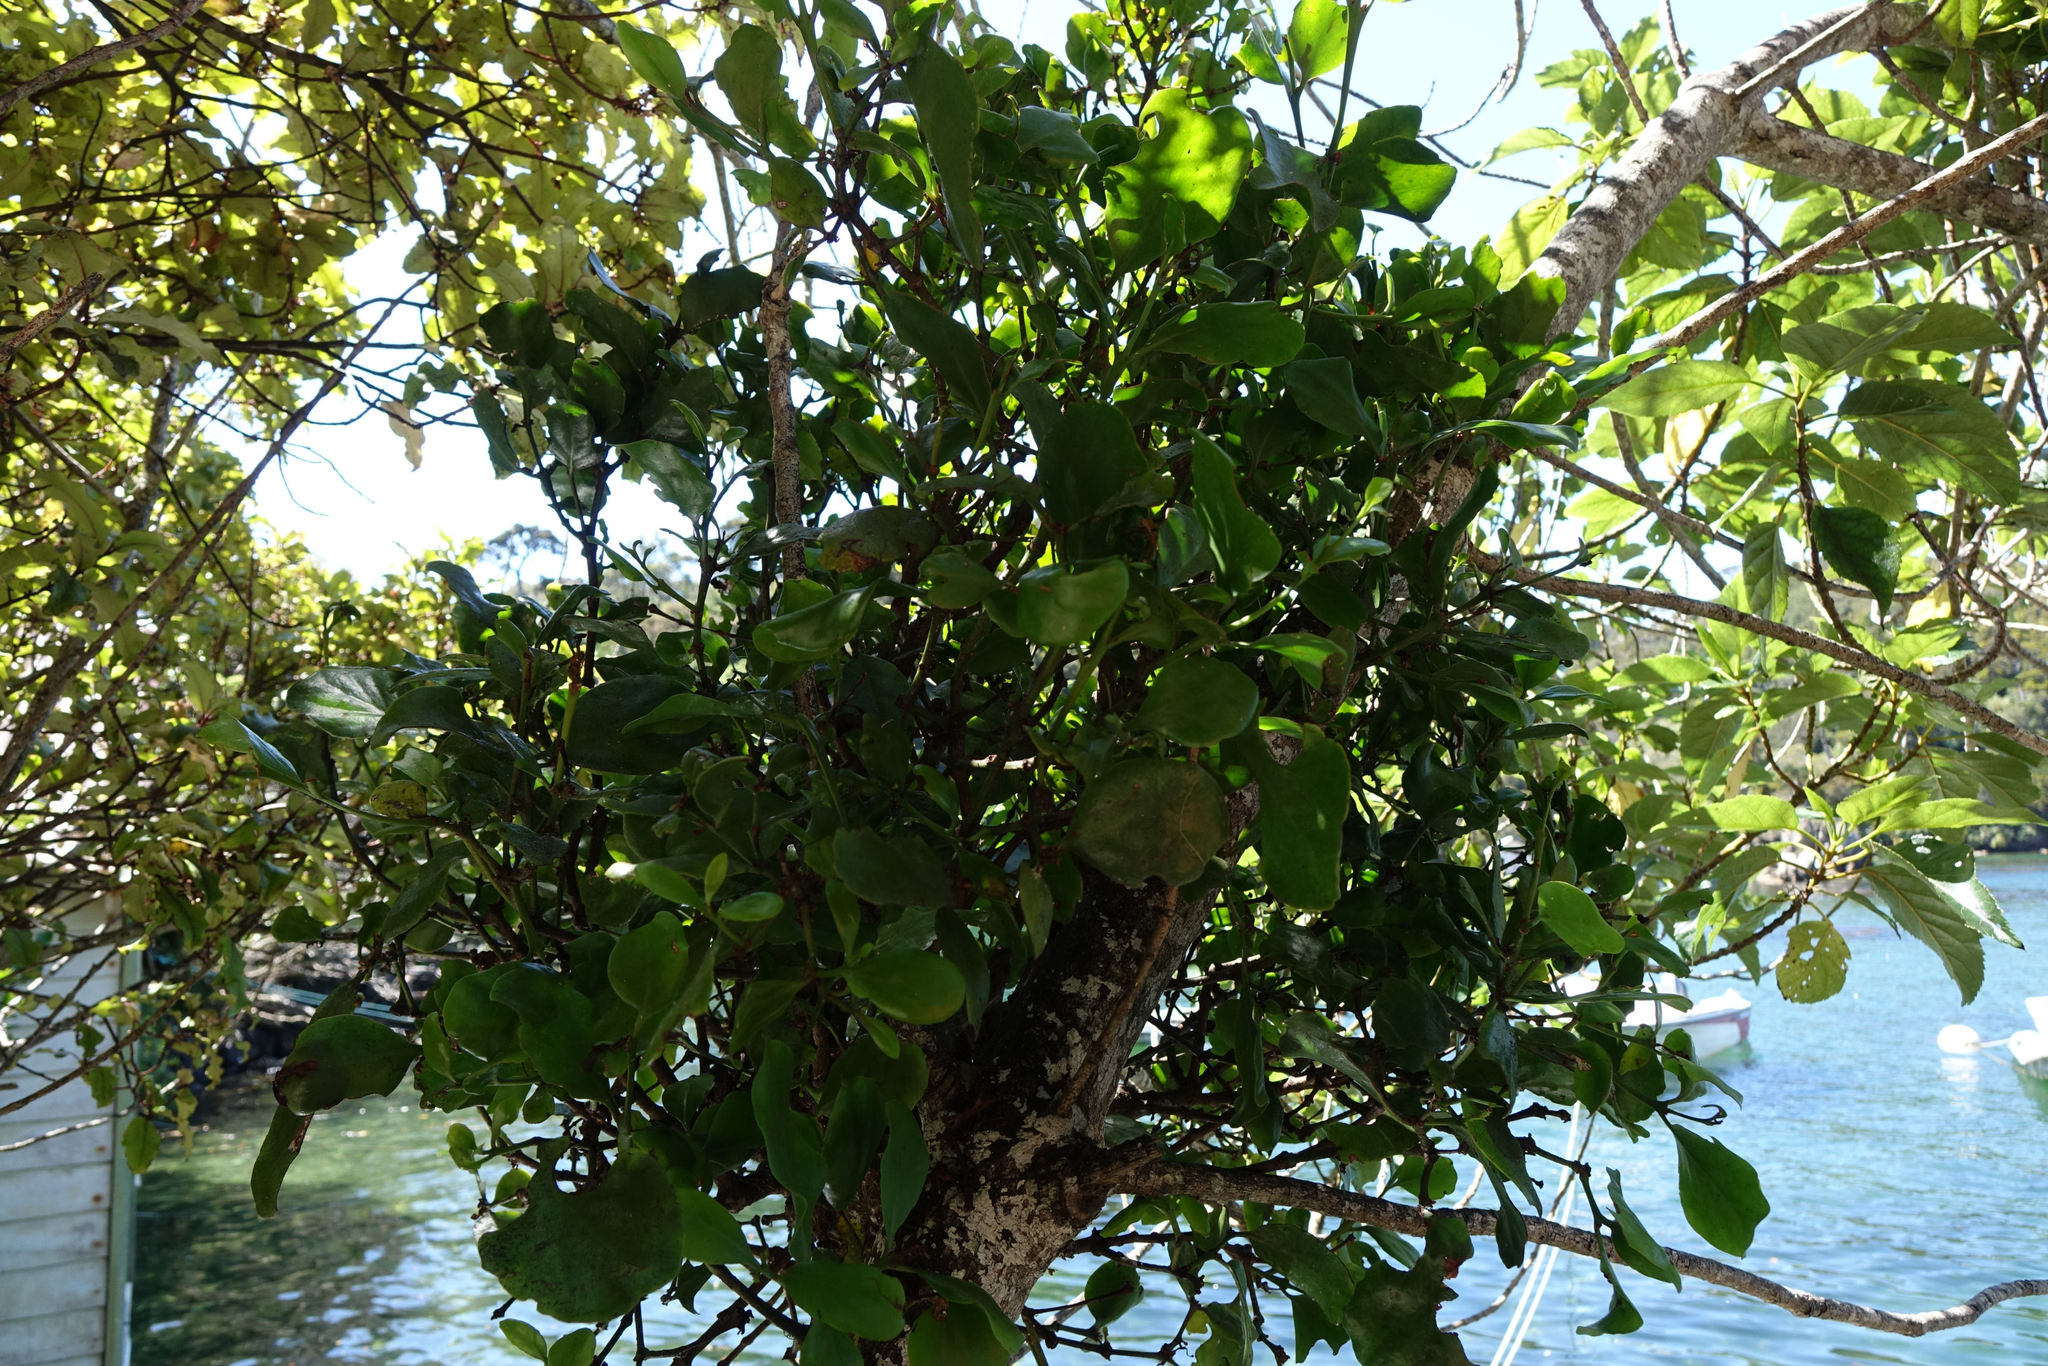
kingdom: Plantae
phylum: Tracheophyta
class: Magnoliopsida
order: Santalales
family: Loranthaceae
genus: Ileostylus
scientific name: Ileostylus micranthus
